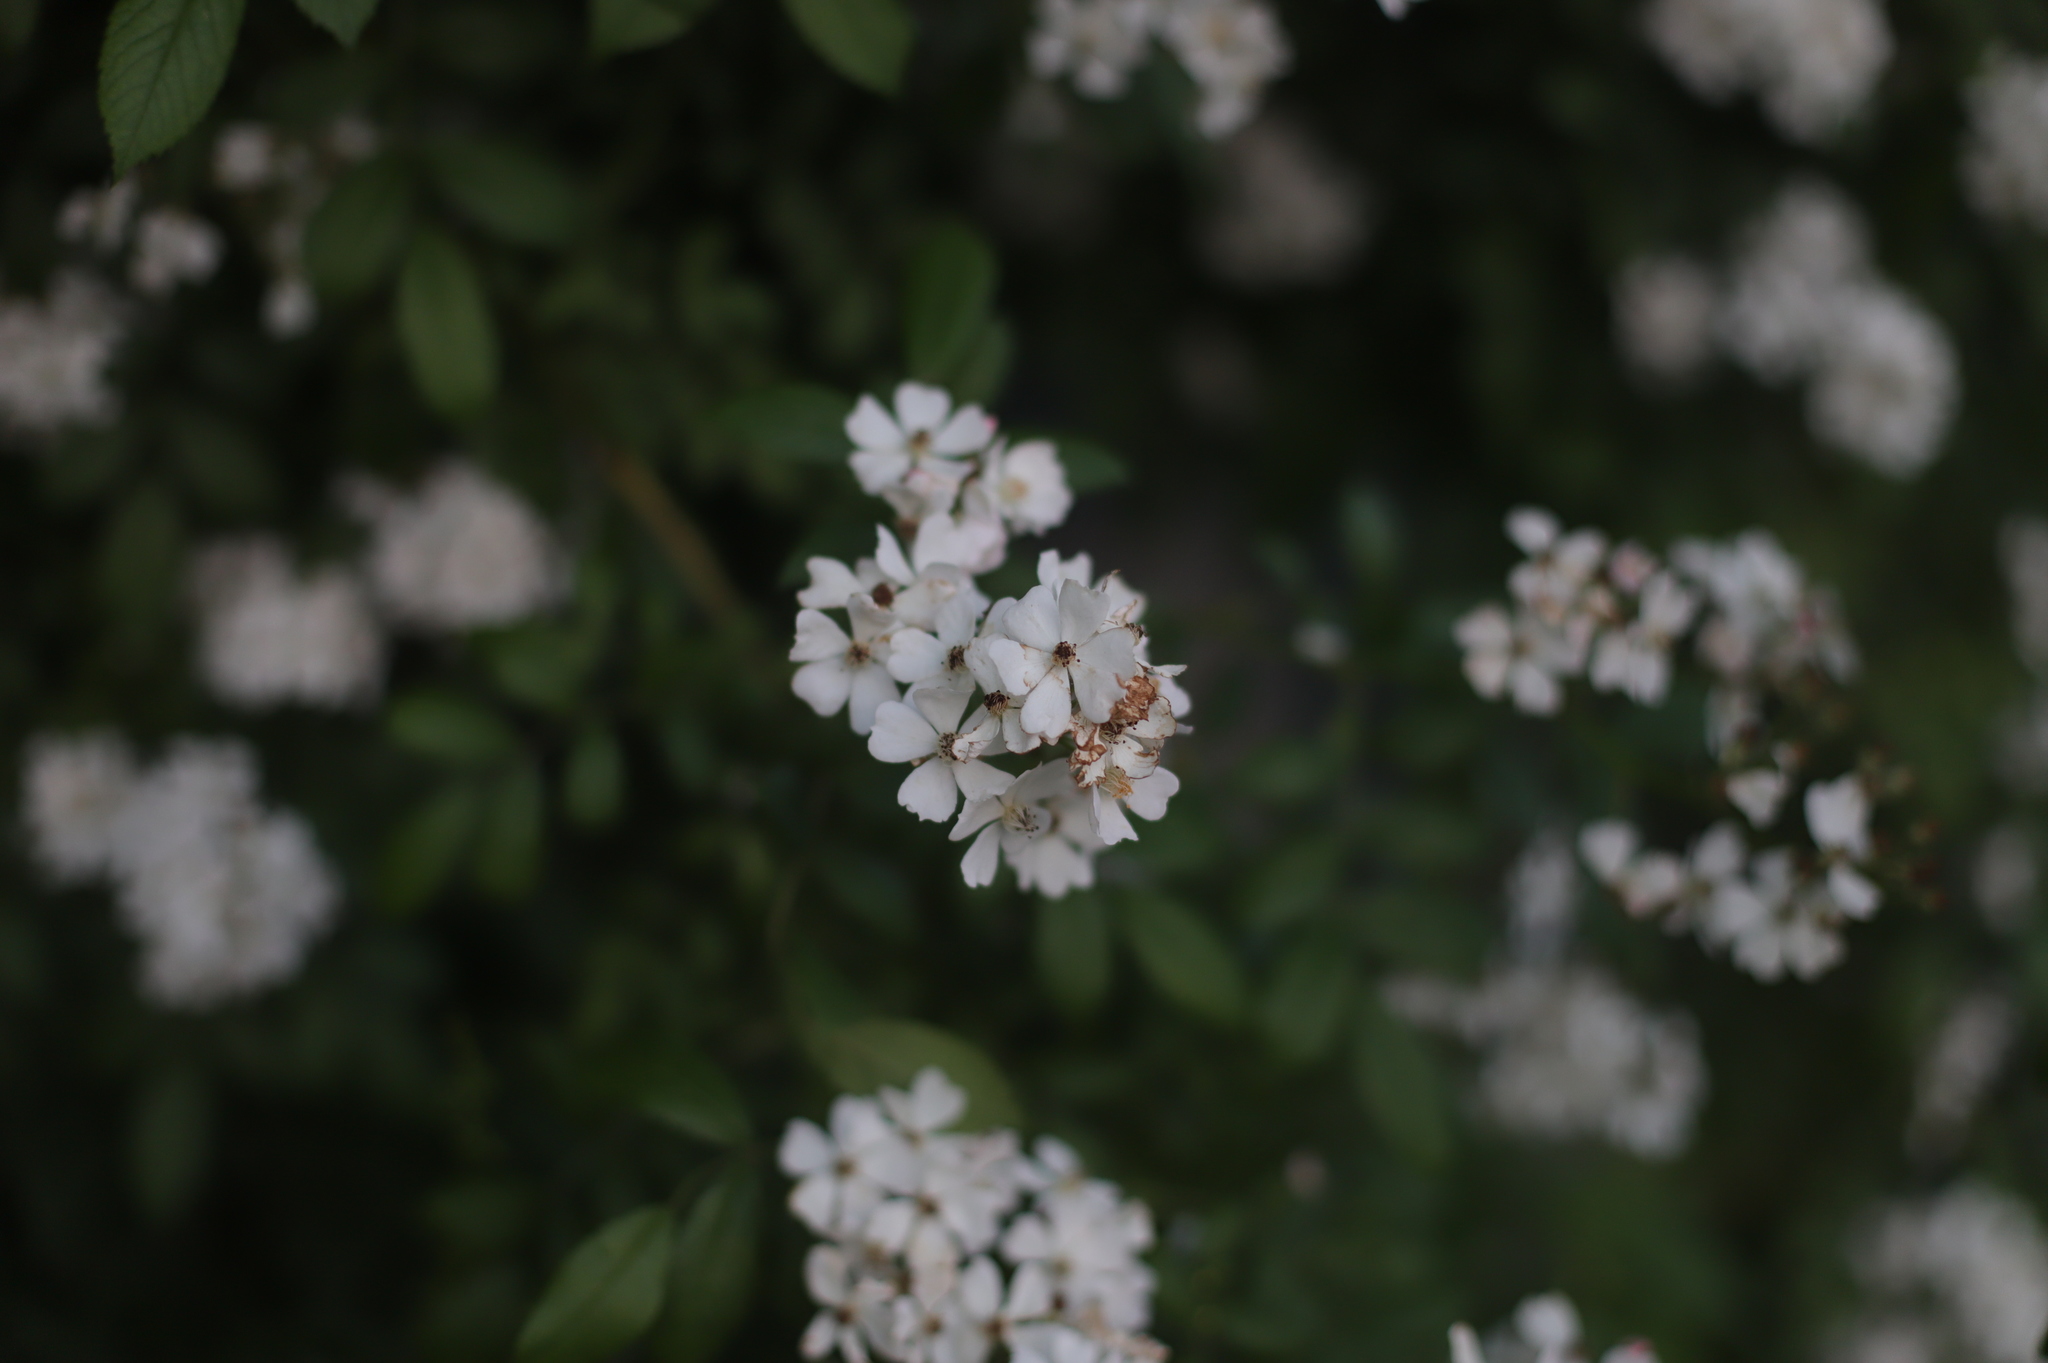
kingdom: Plantae
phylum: Tracheophyta
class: Magnoliopsida
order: Rosales
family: Rosaceae
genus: Rosa
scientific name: Rosa multiflora
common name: Multiflora rose
